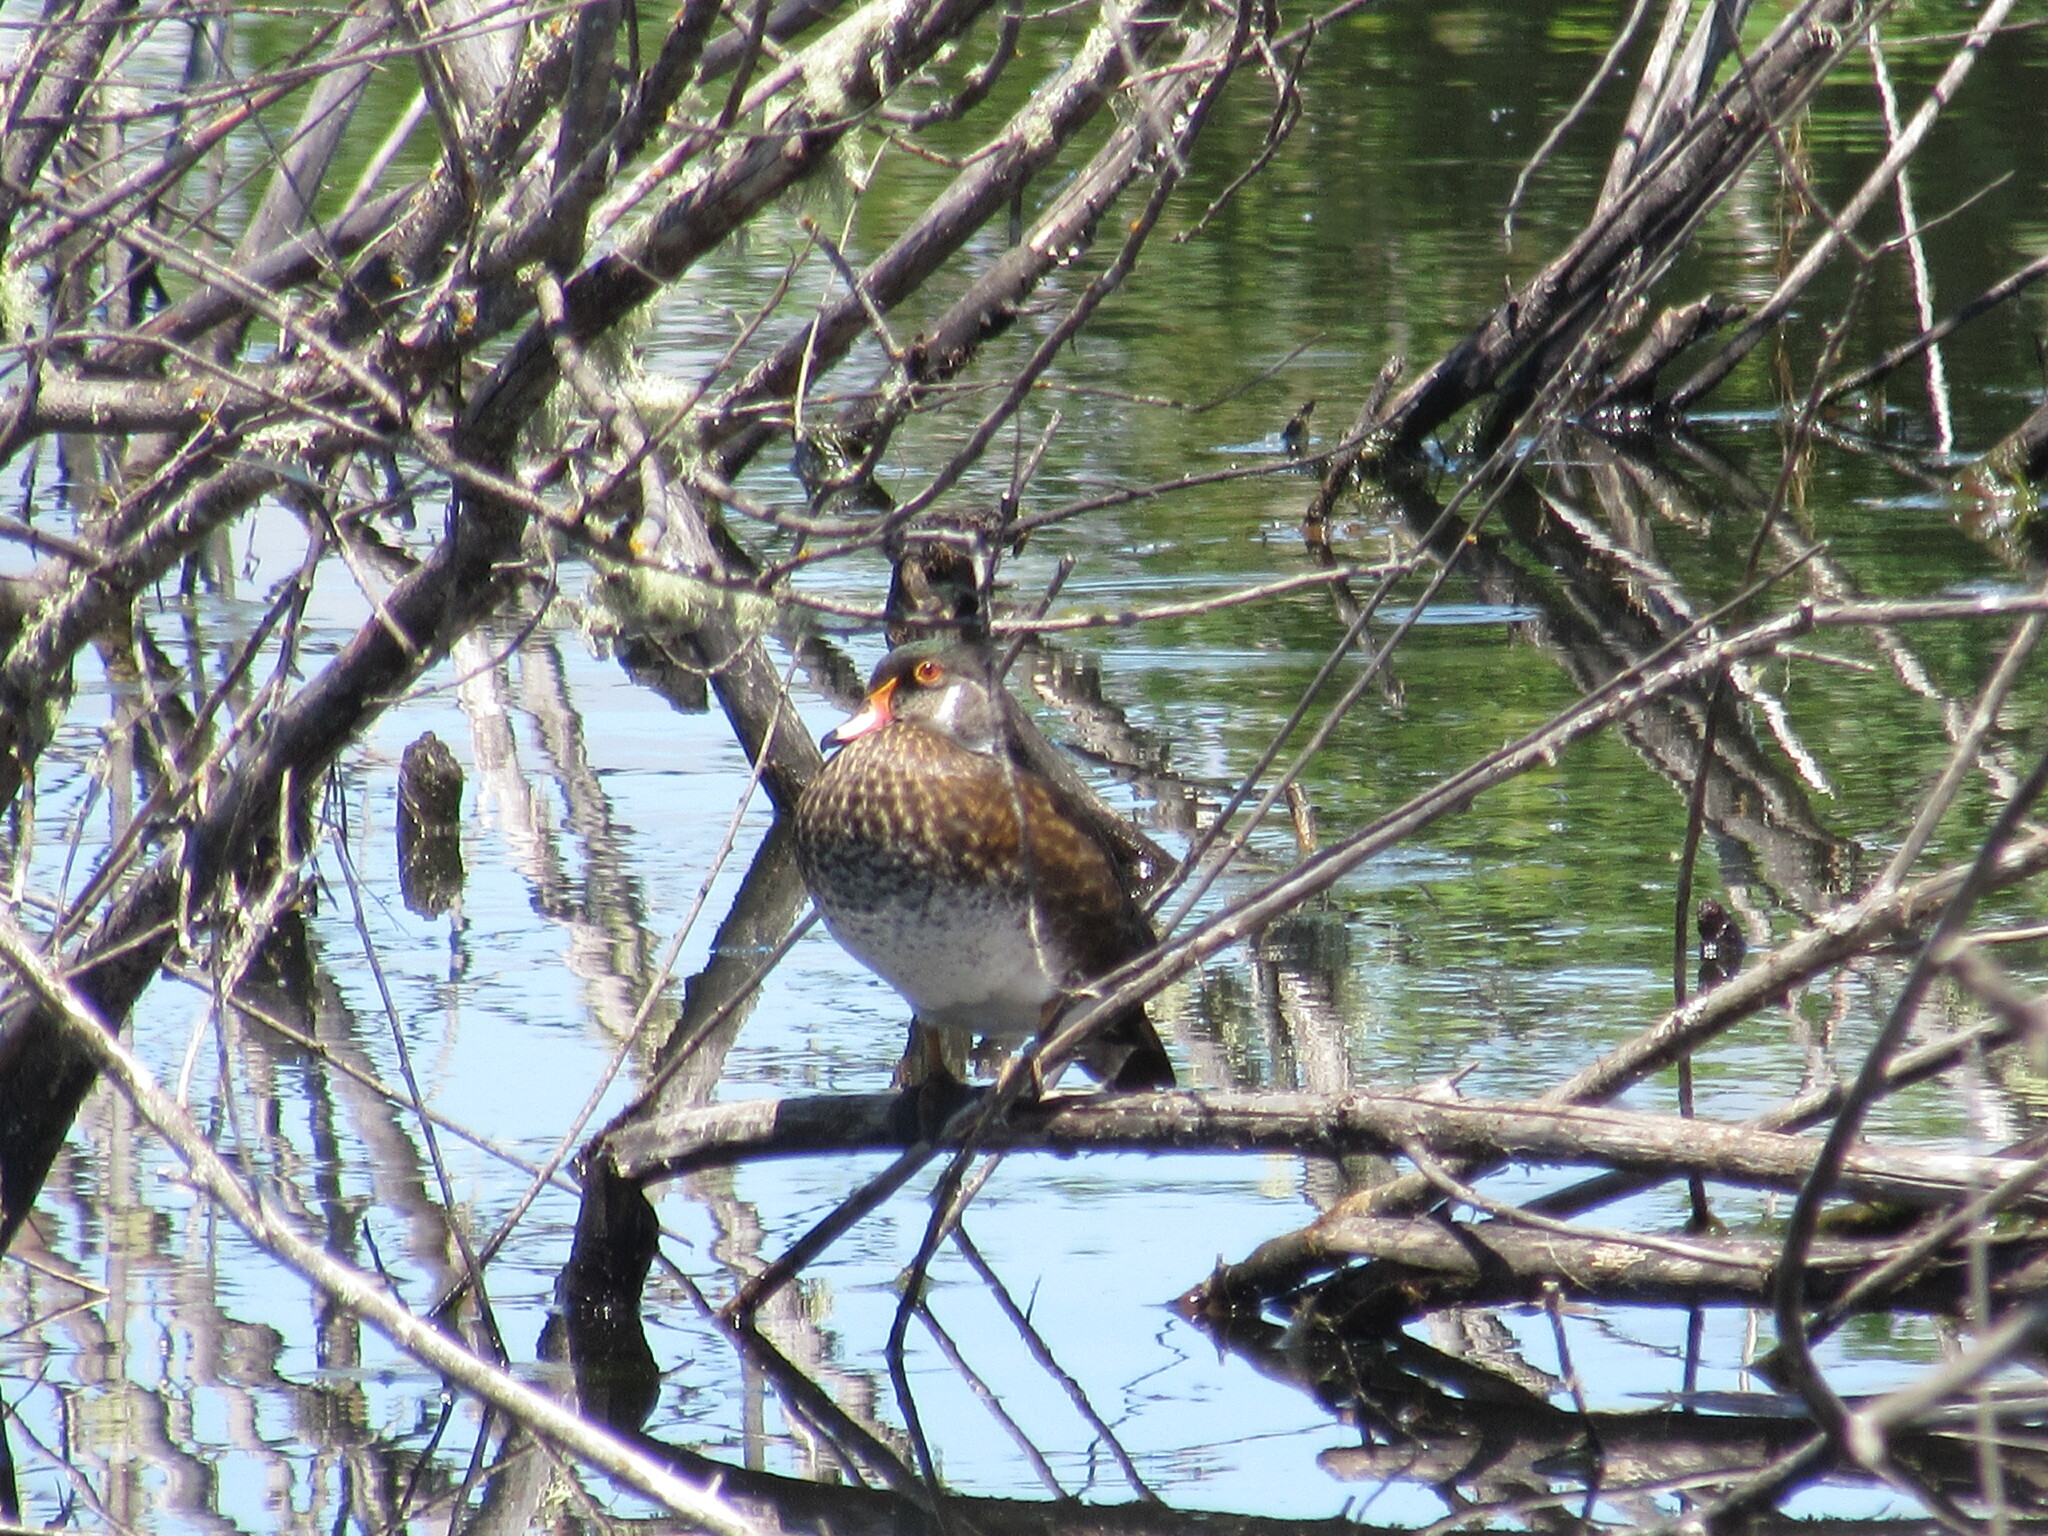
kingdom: Animalia
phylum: Chordata
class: Aves
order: Anseriformes
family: Anatidae
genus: Aix
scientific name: Aix sponsa
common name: Wood duck
